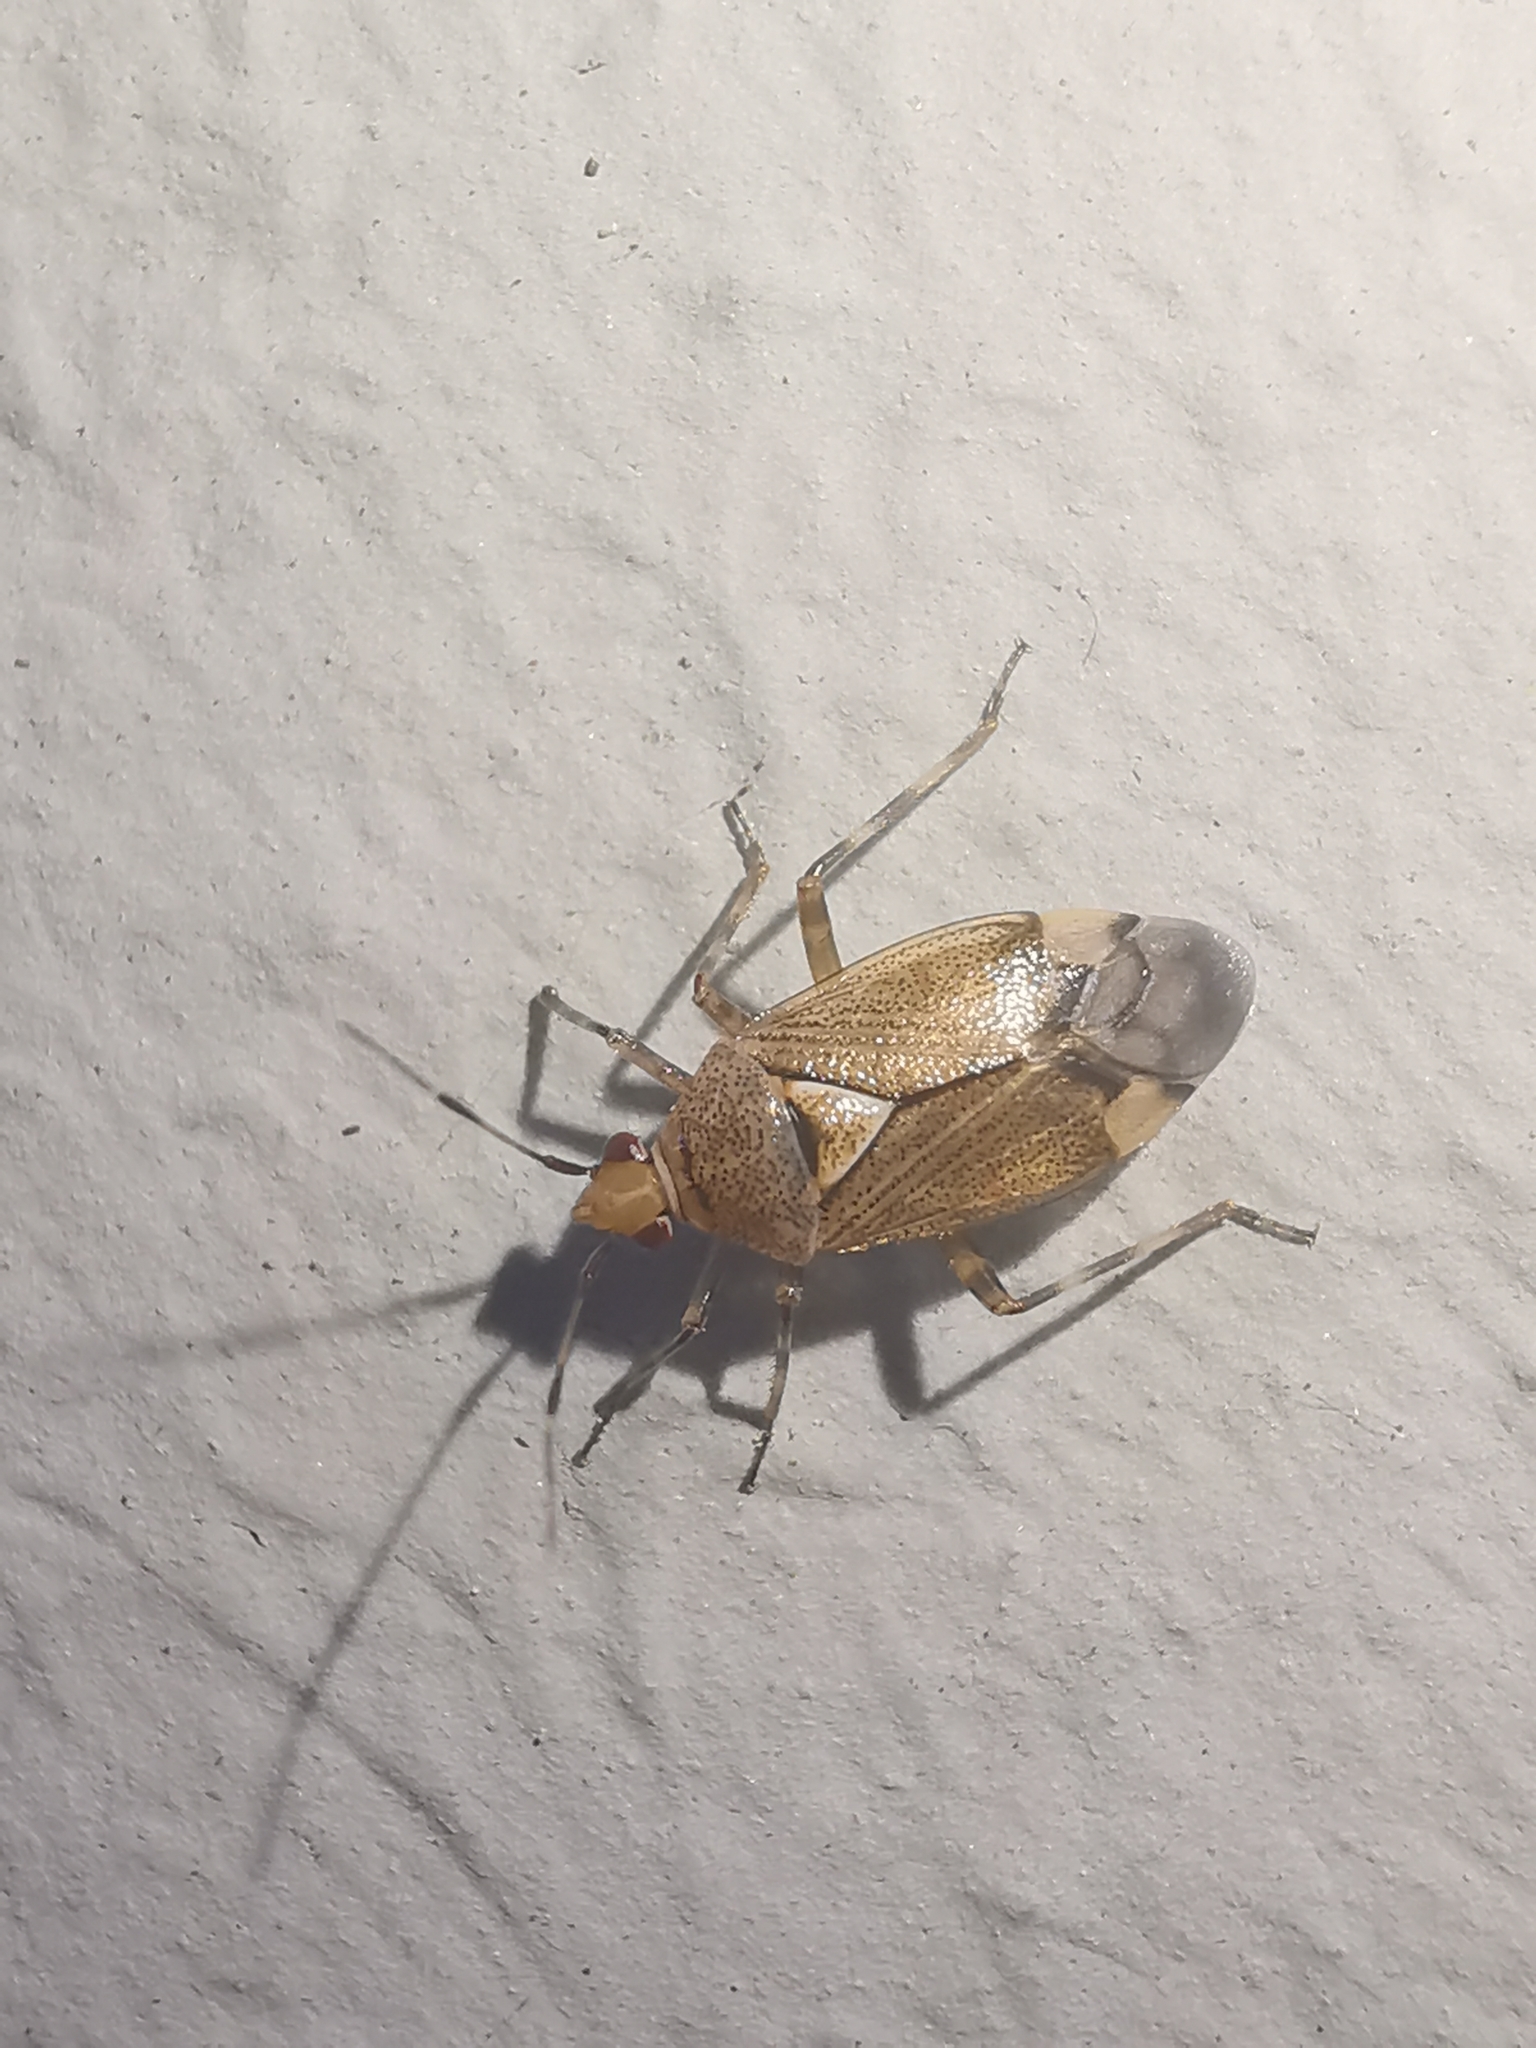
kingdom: Animalia
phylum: Arthropoda
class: Insecta
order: Hemiptera
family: Miridae
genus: Deraeocoris
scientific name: Deraeocoris flavilinea
